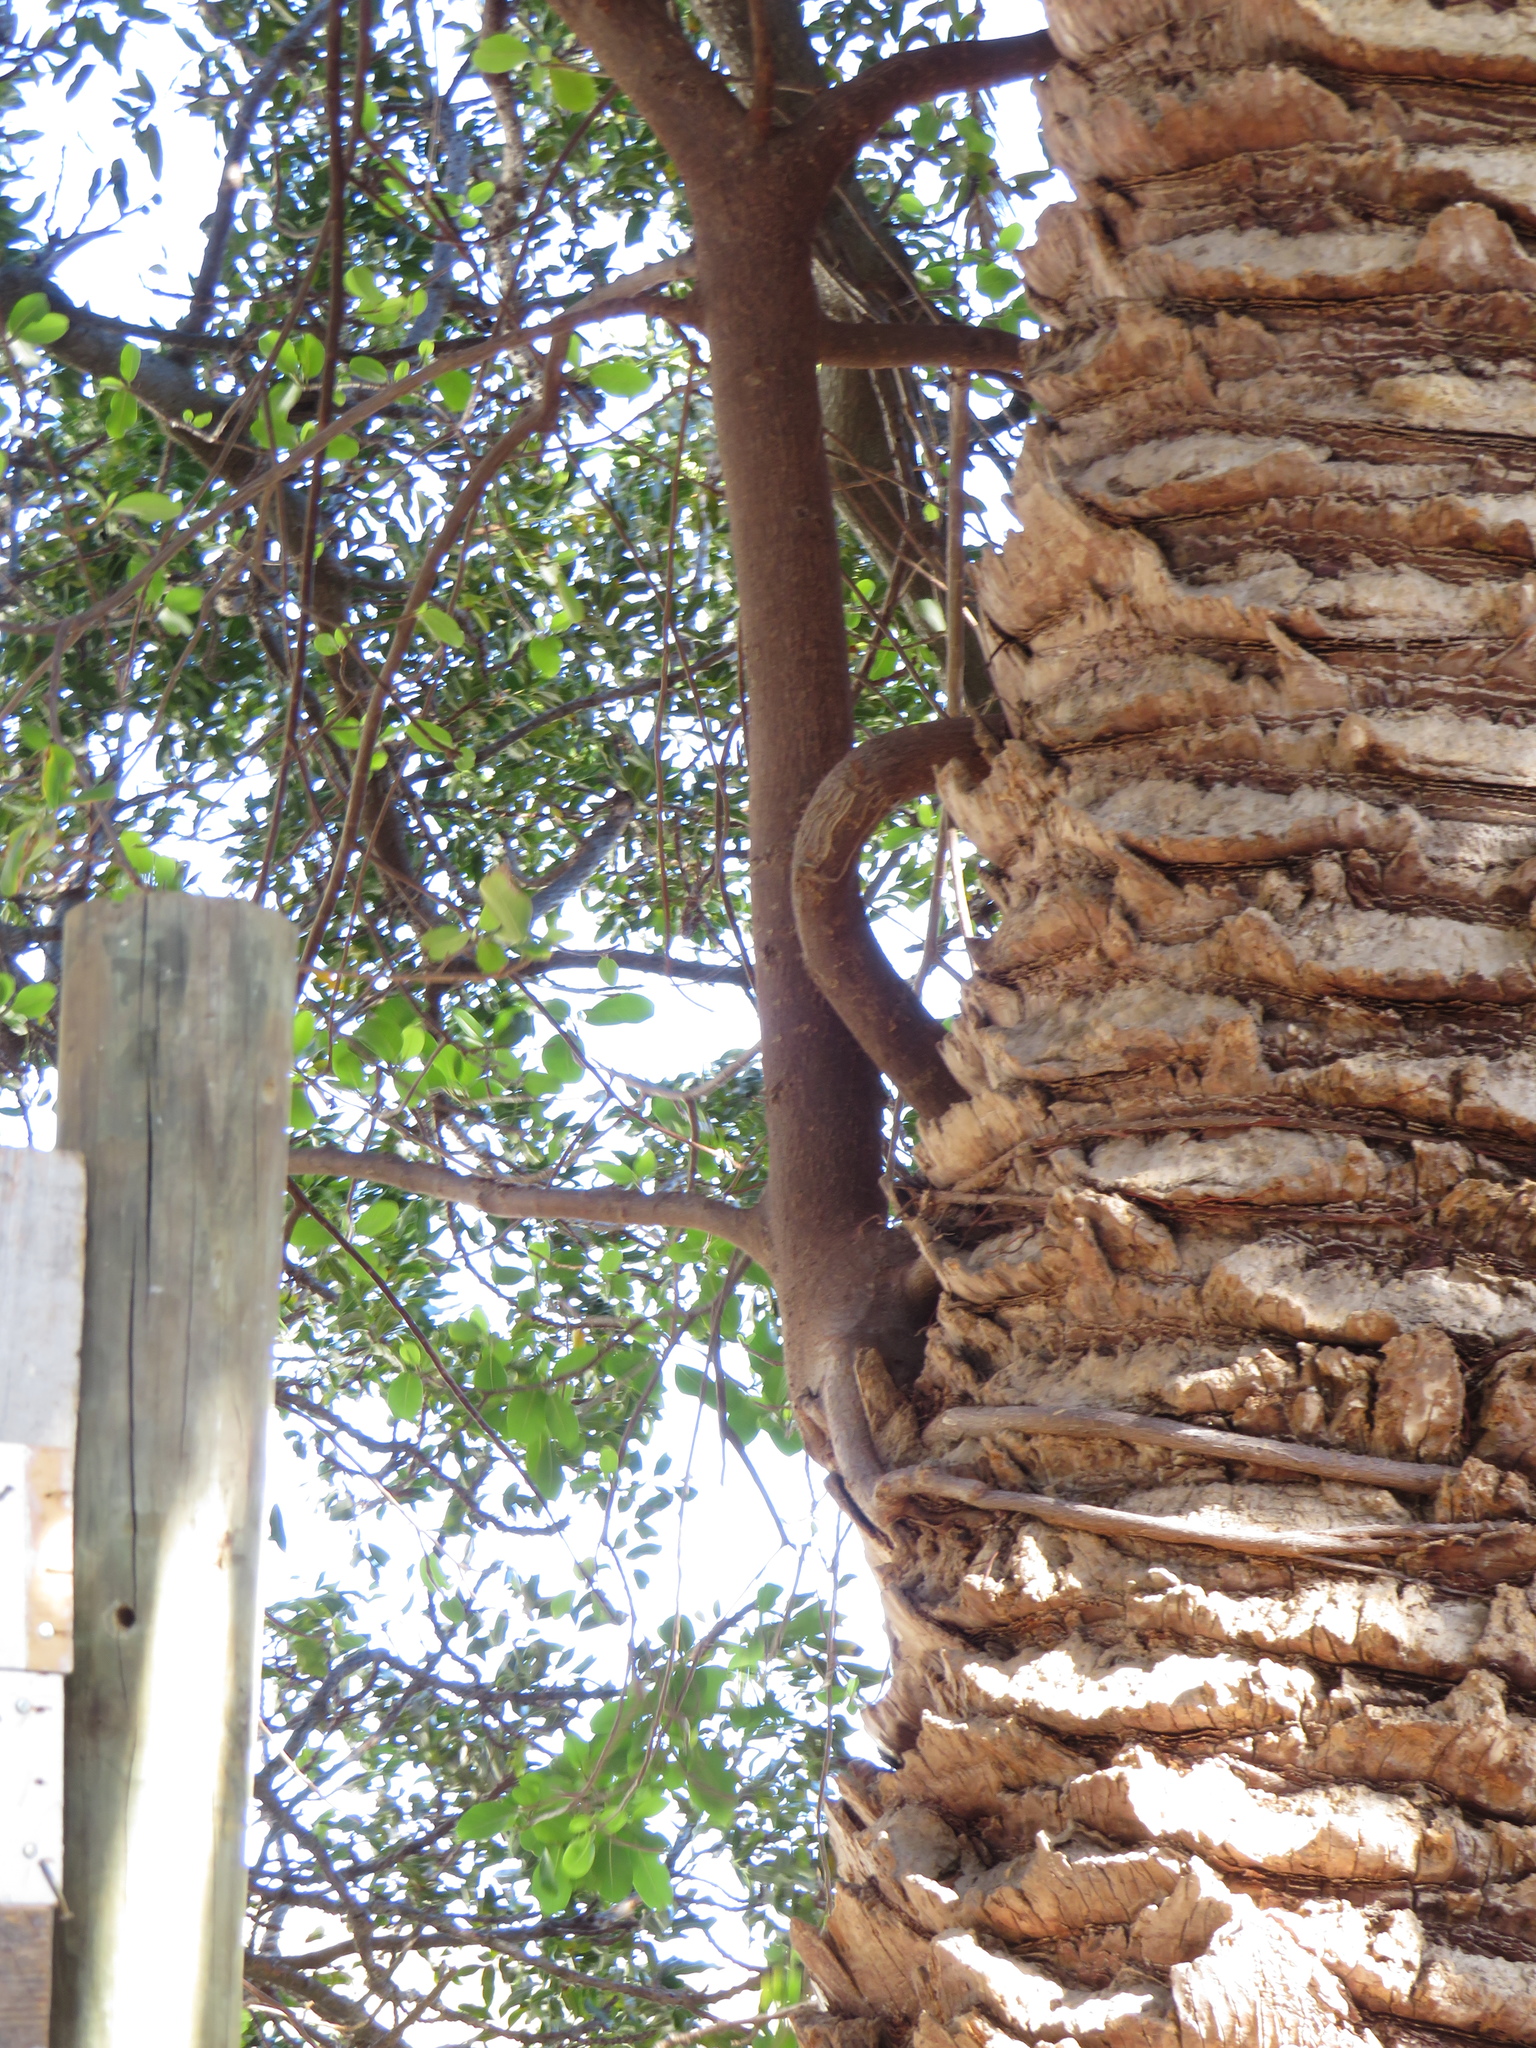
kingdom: Plantae
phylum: Tracheophyta
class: Magnoliopsida
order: Rosales
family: Moraceae
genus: Ficus
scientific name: Ficus thonningii
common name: Fig
